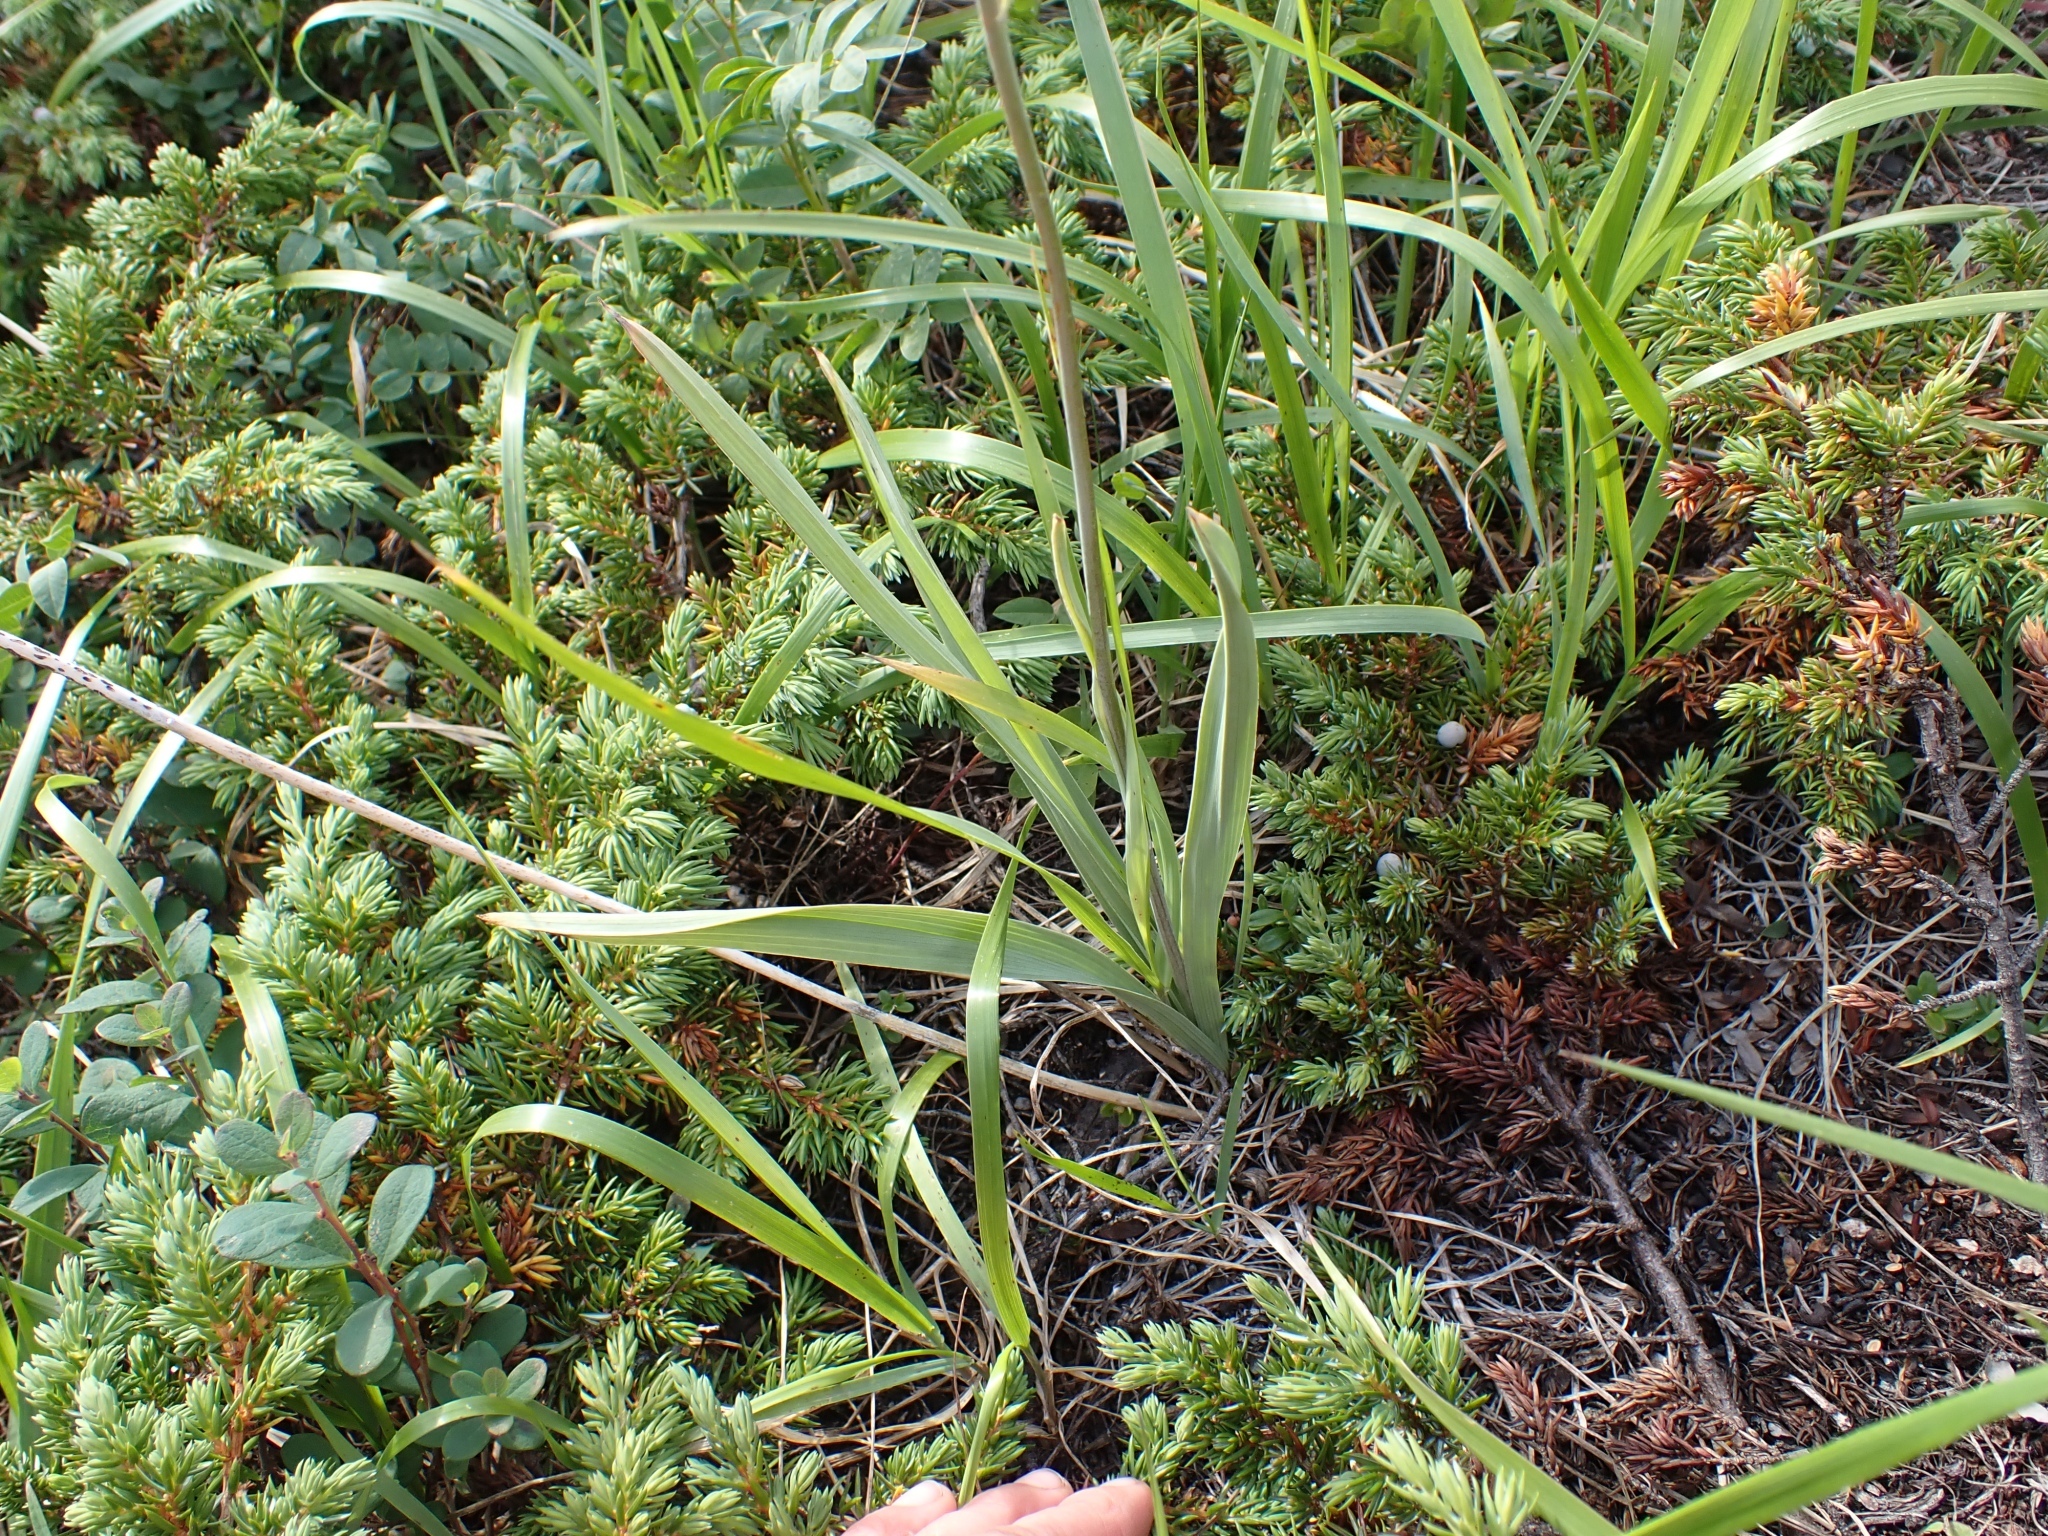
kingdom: Plantae
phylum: Tracheophyta
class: Liliopsida
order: Liliales
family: Melanthiaceae
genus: Anticlea
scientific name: Anticlea elegans
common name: Mountain death camas
